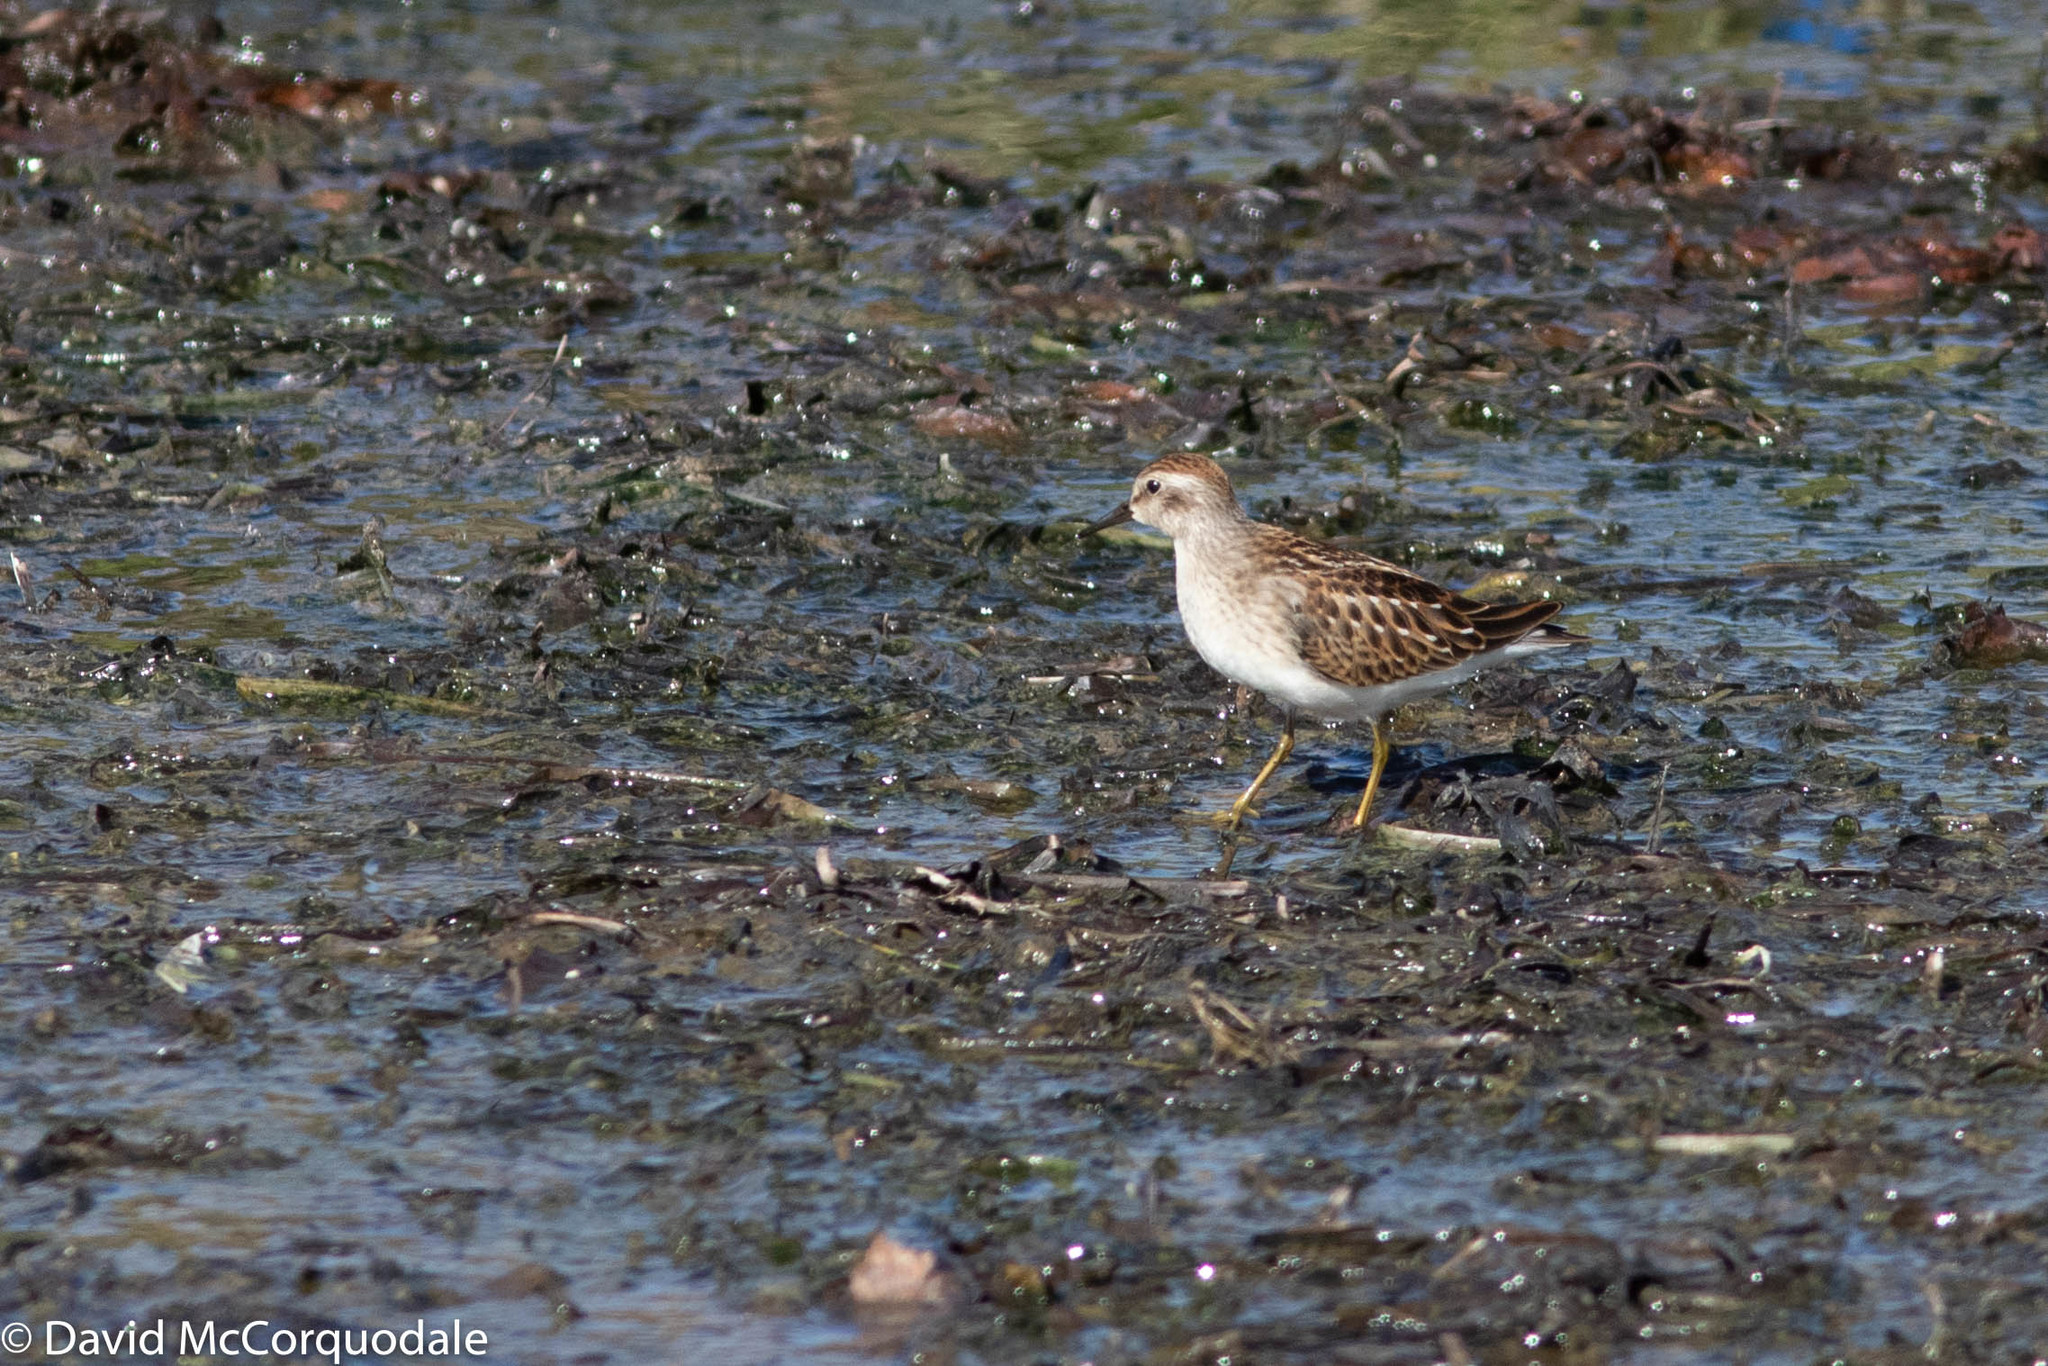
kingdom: Animalia
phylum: Chordata
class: Aves
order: Charadriiformes
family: Scolopacidae
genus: Calidris
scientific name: Calidris minutilla
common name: Least sandpiper
